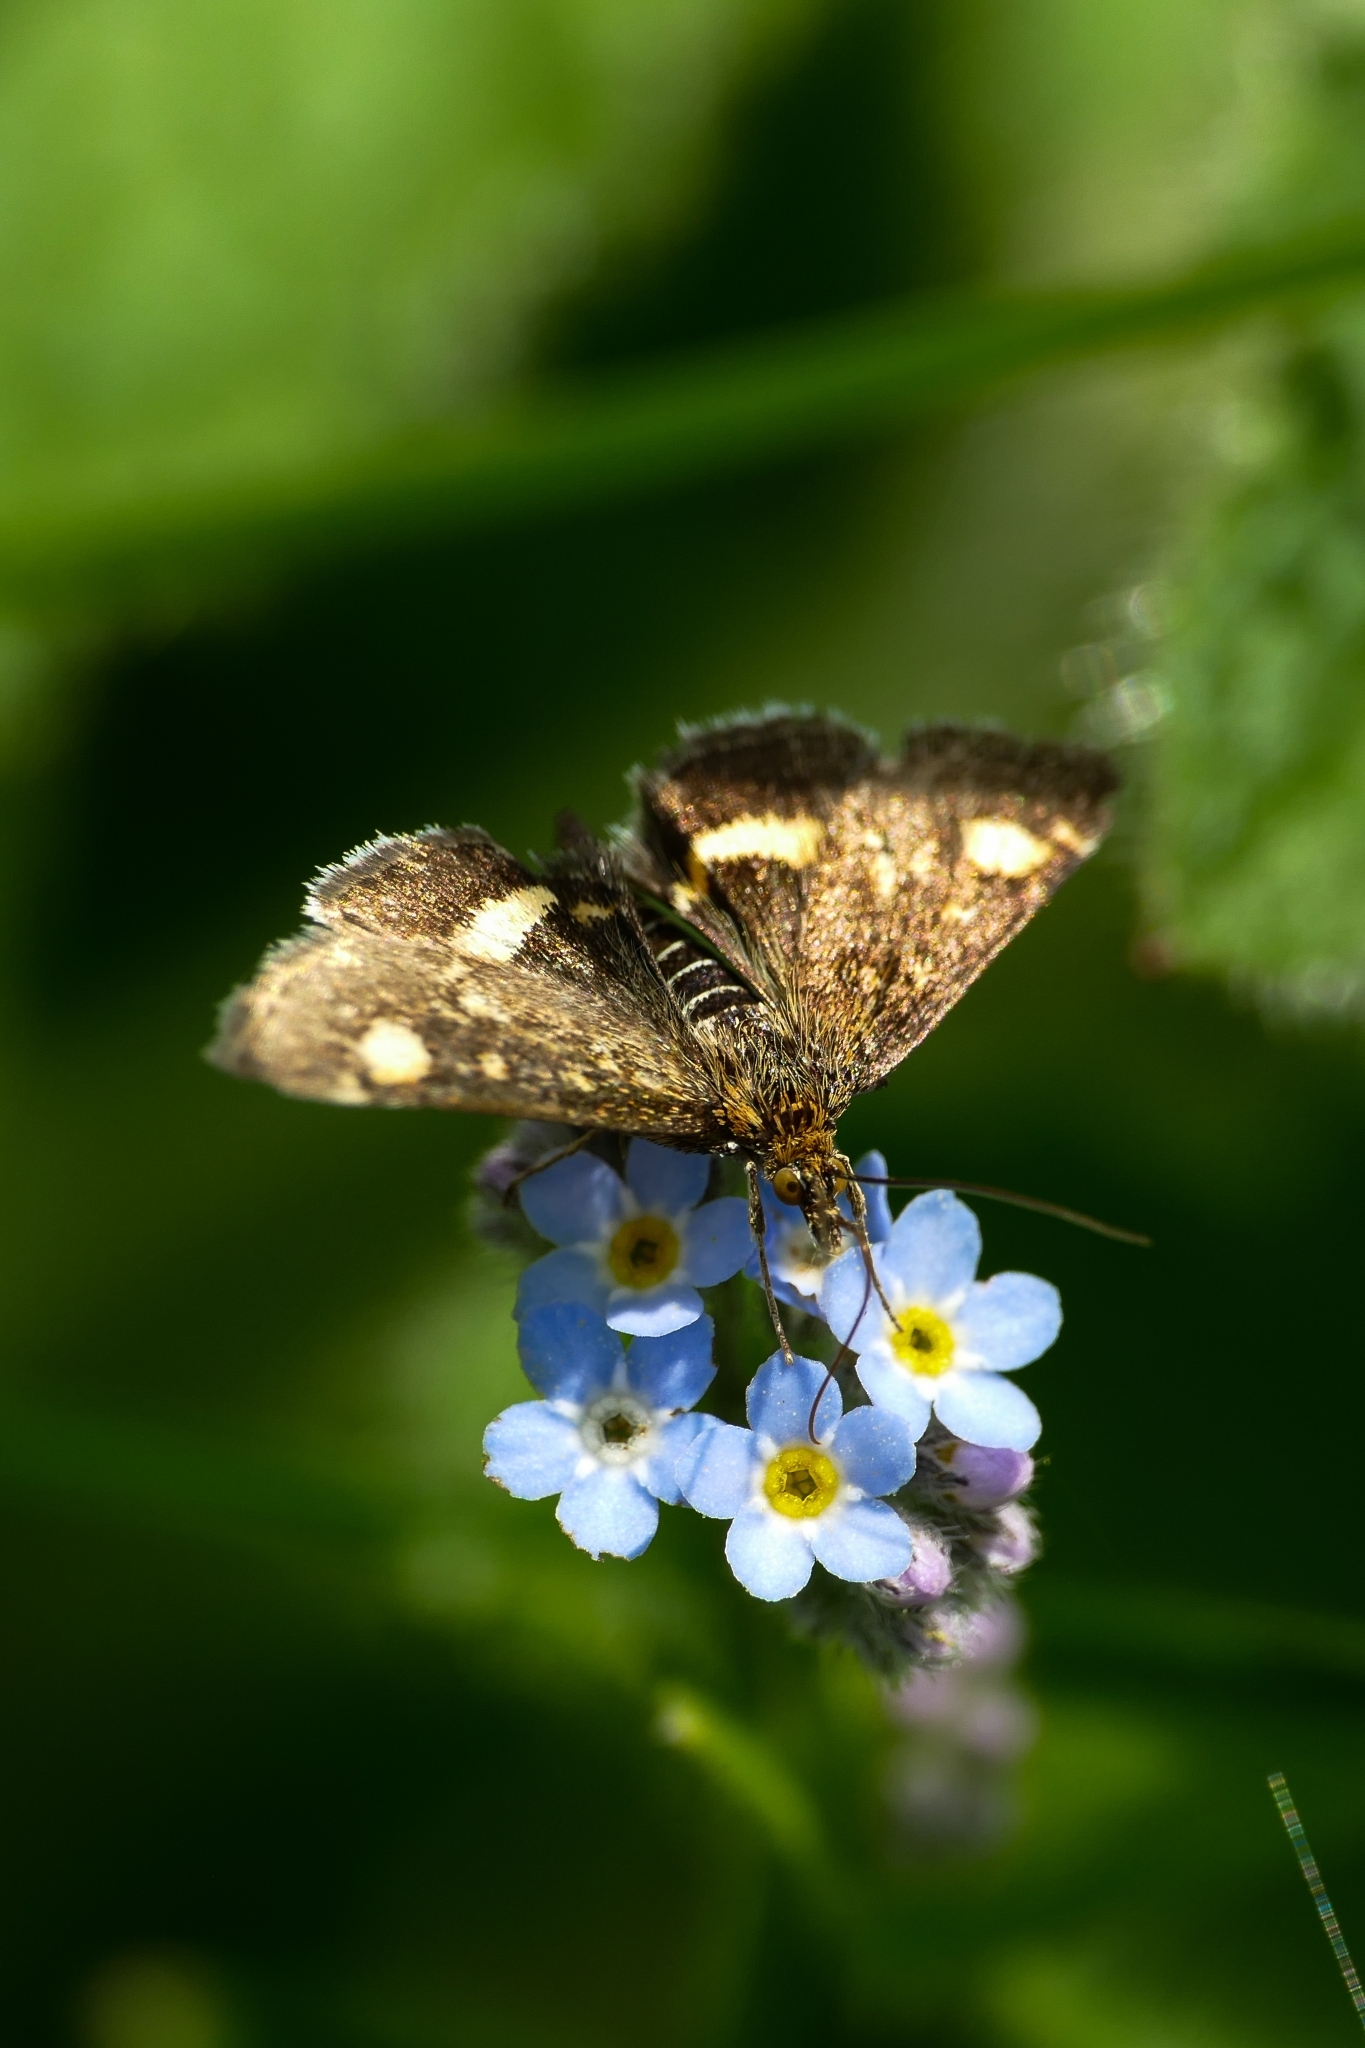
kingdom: Animalia
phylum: Arthropoda
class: Insecta
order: Lepidoptera
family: Crambidae
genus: Pyrausta
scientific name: Pyrausta aurata
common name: Small purple & gold
